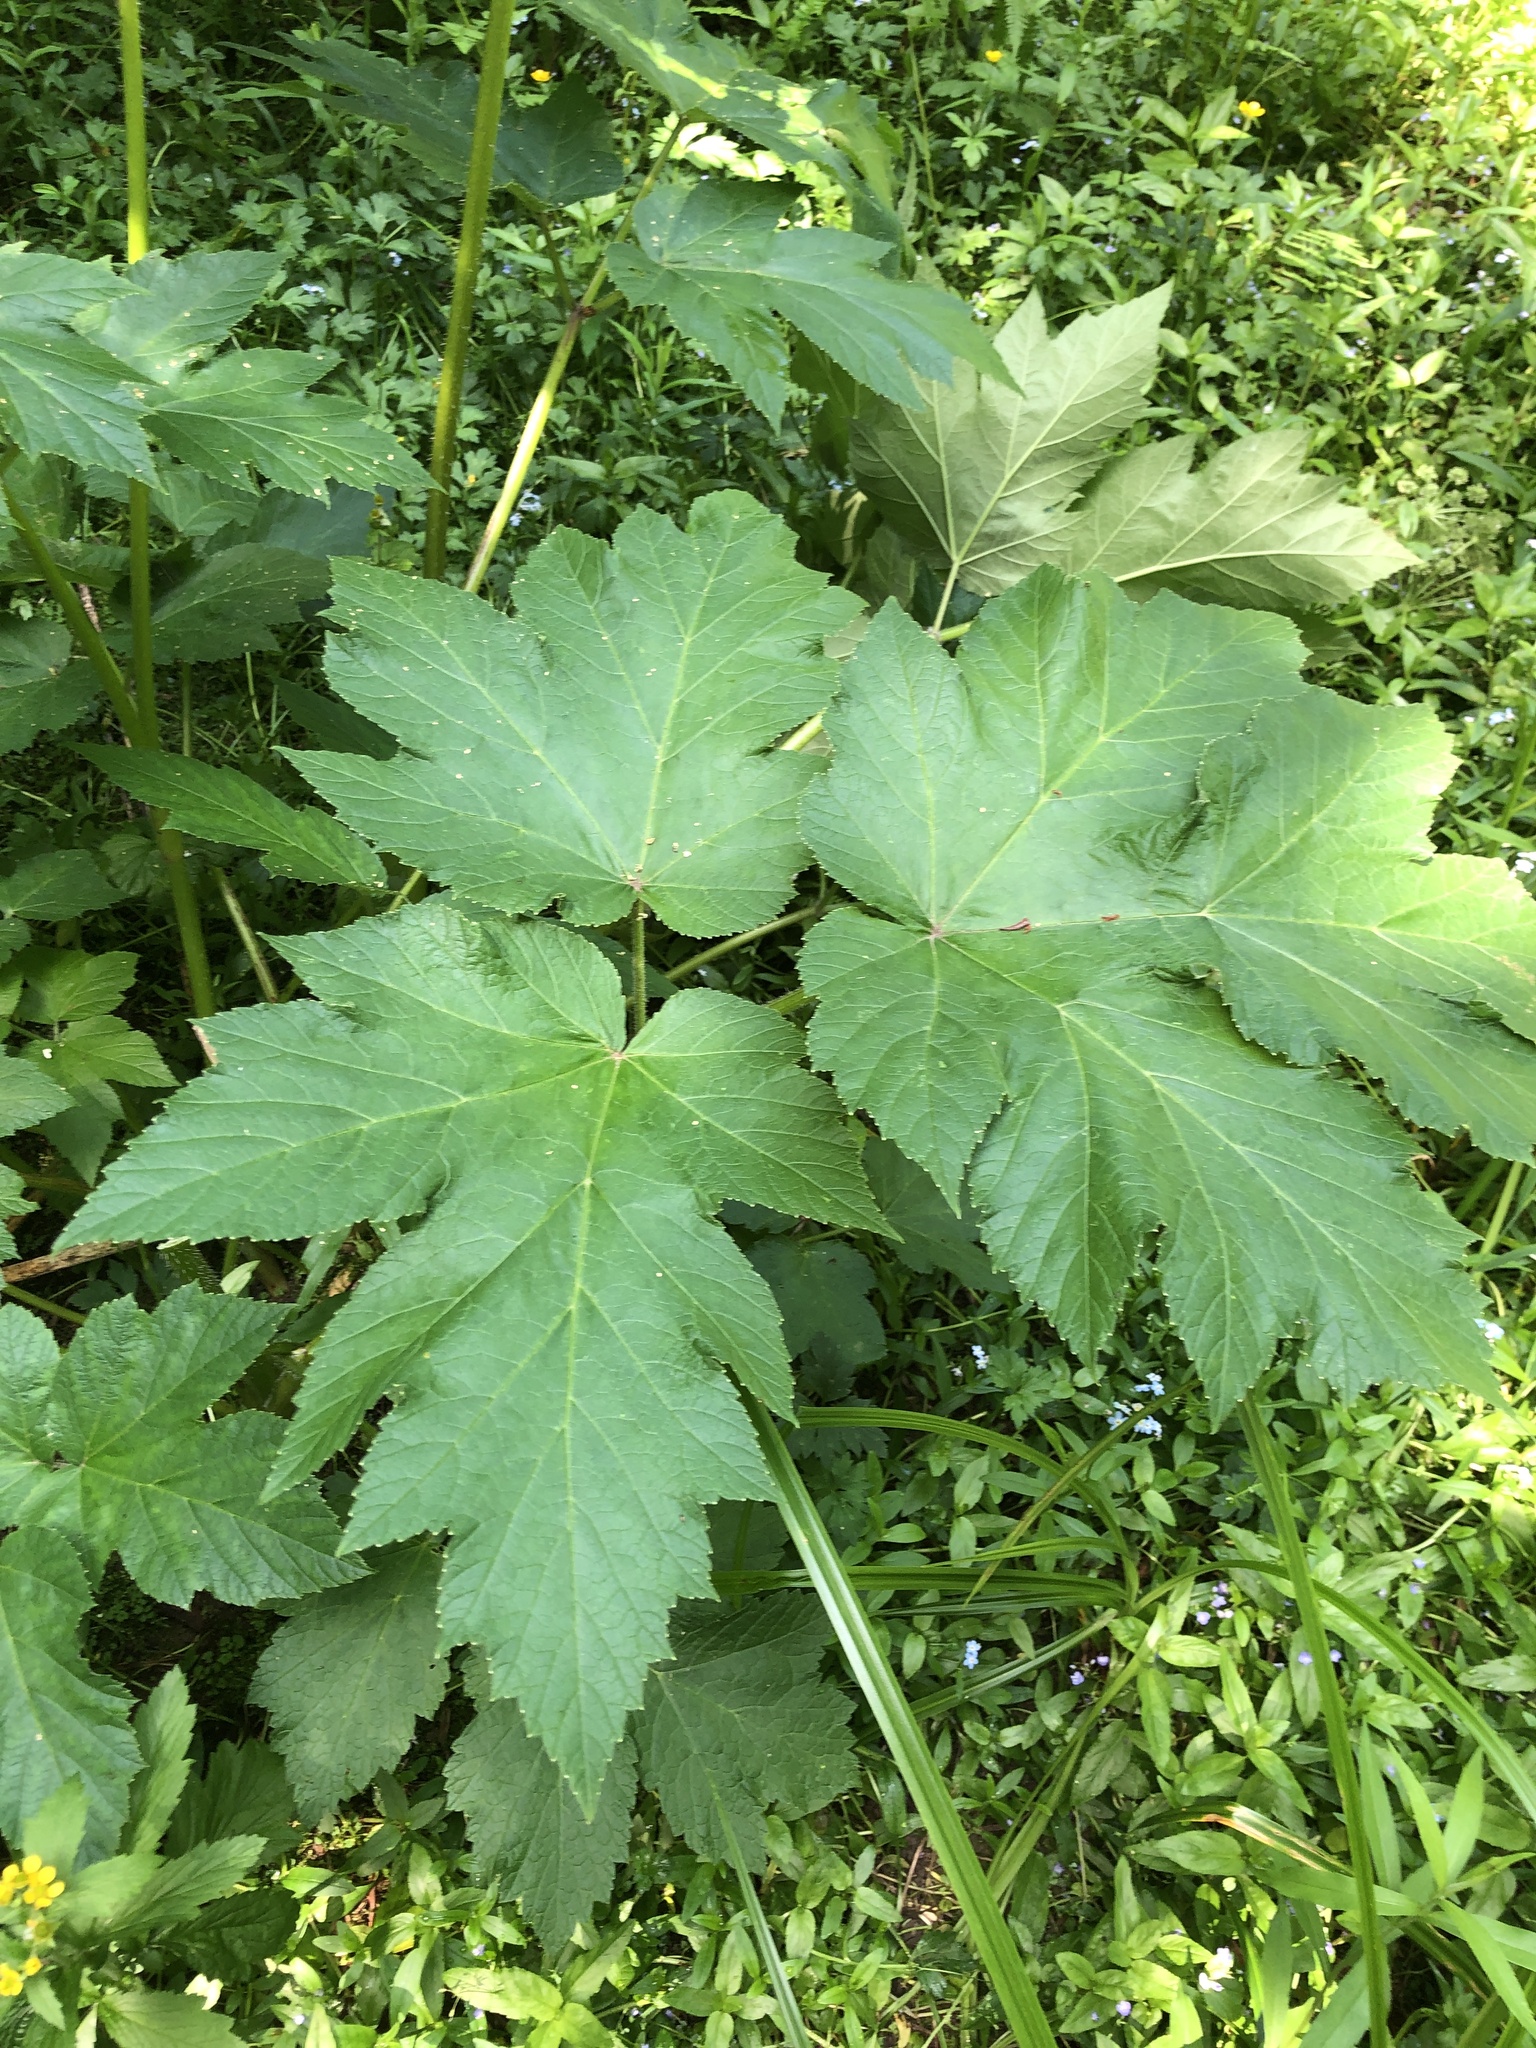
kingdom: Plantae
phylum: Tracheophyta
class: Magnoliopsida
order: Apiales
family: Apiaceae
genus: Heracleum
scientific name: Heracleum maximum
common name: American cow parsnip
